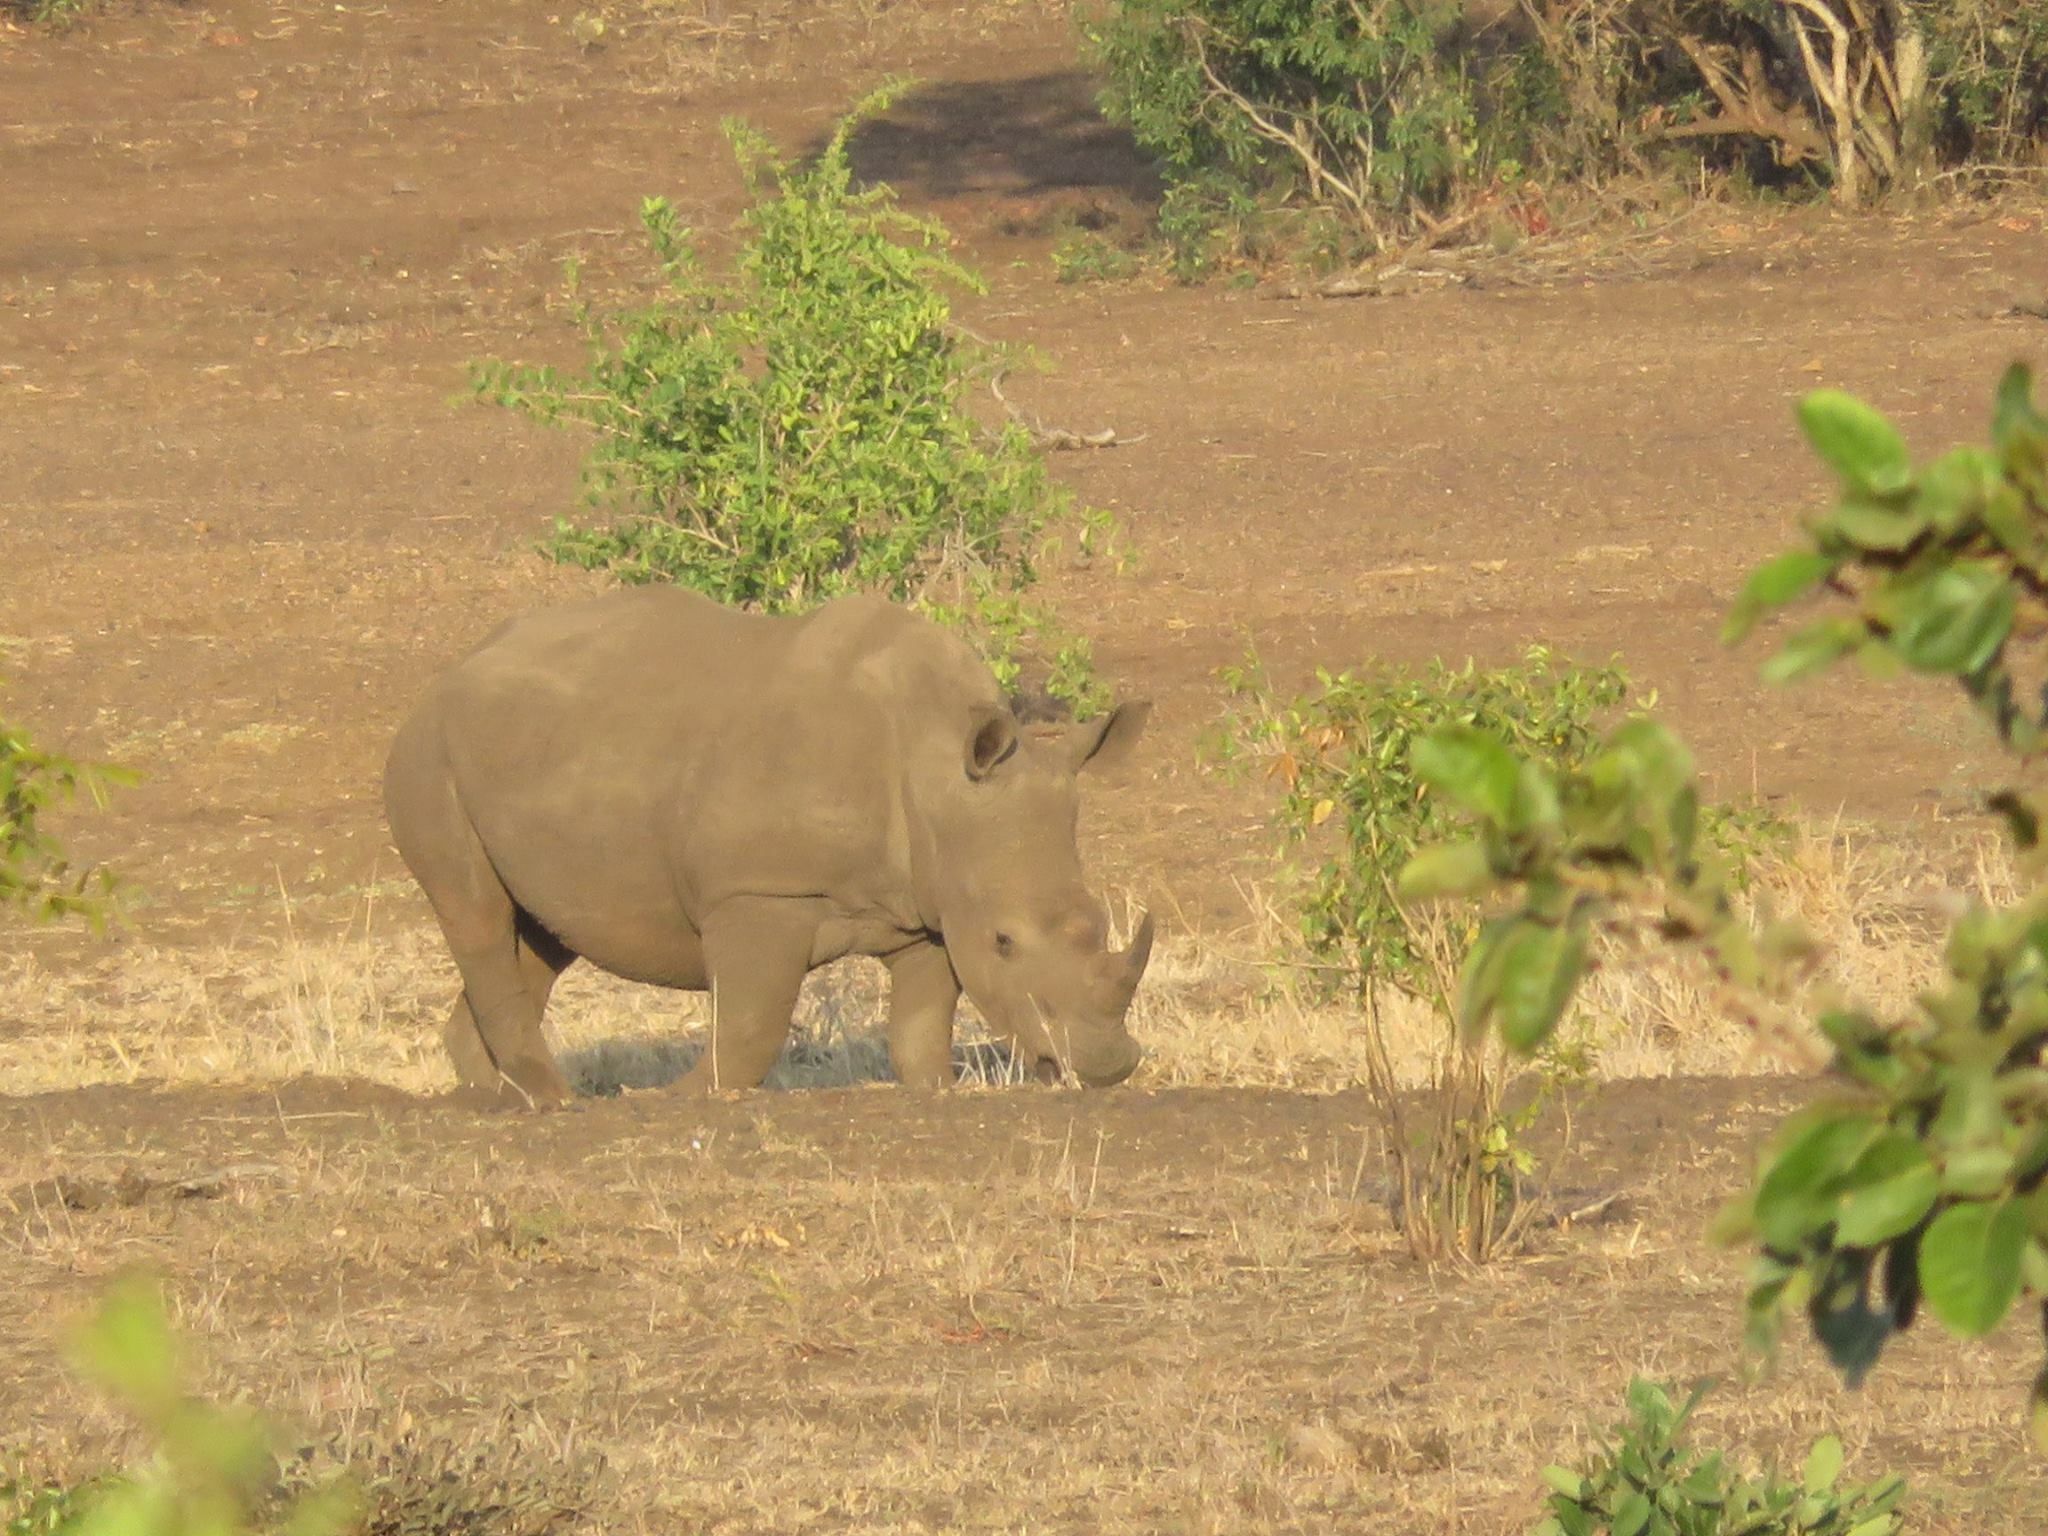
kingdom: Animalia
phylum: Chordata
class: Mammalia
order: Perissodactyla
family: Rhinocerotidae
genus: Ceratotherium
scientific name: Ceratotherium simum
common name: White rhinoceros
